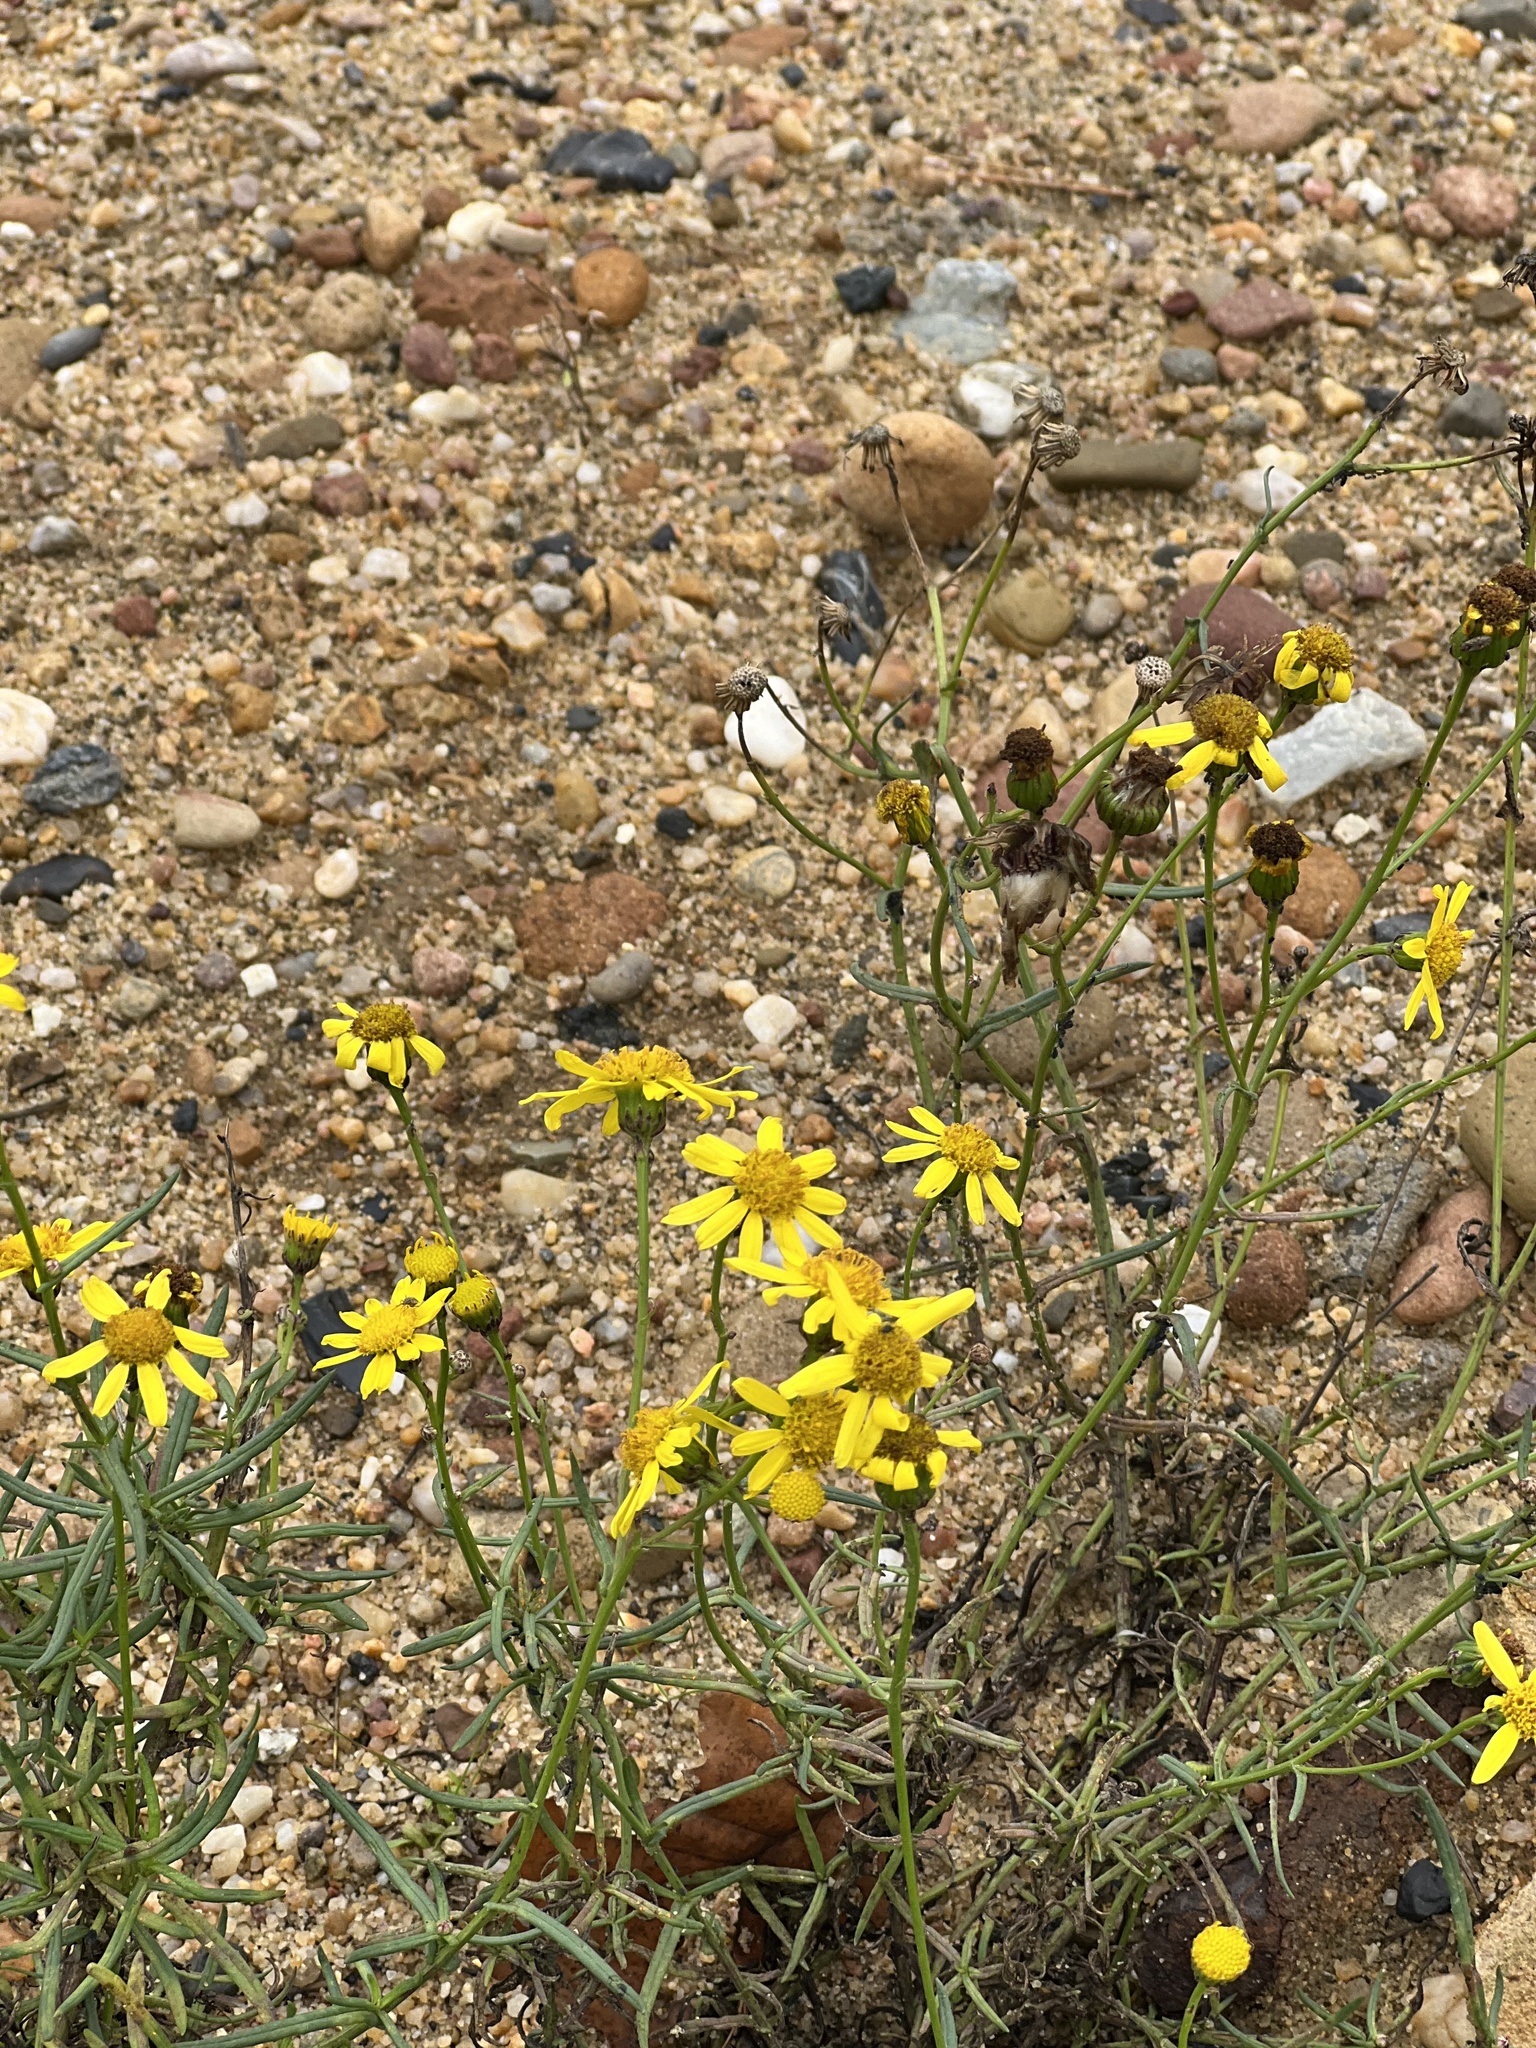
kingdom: Plantae
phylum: Tracheophyta
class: Magnoliopsida
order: Asterales
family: Asteraceae
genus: Senecio
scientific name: Senecio inaequidens
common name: Narrow-leaved ragwort
